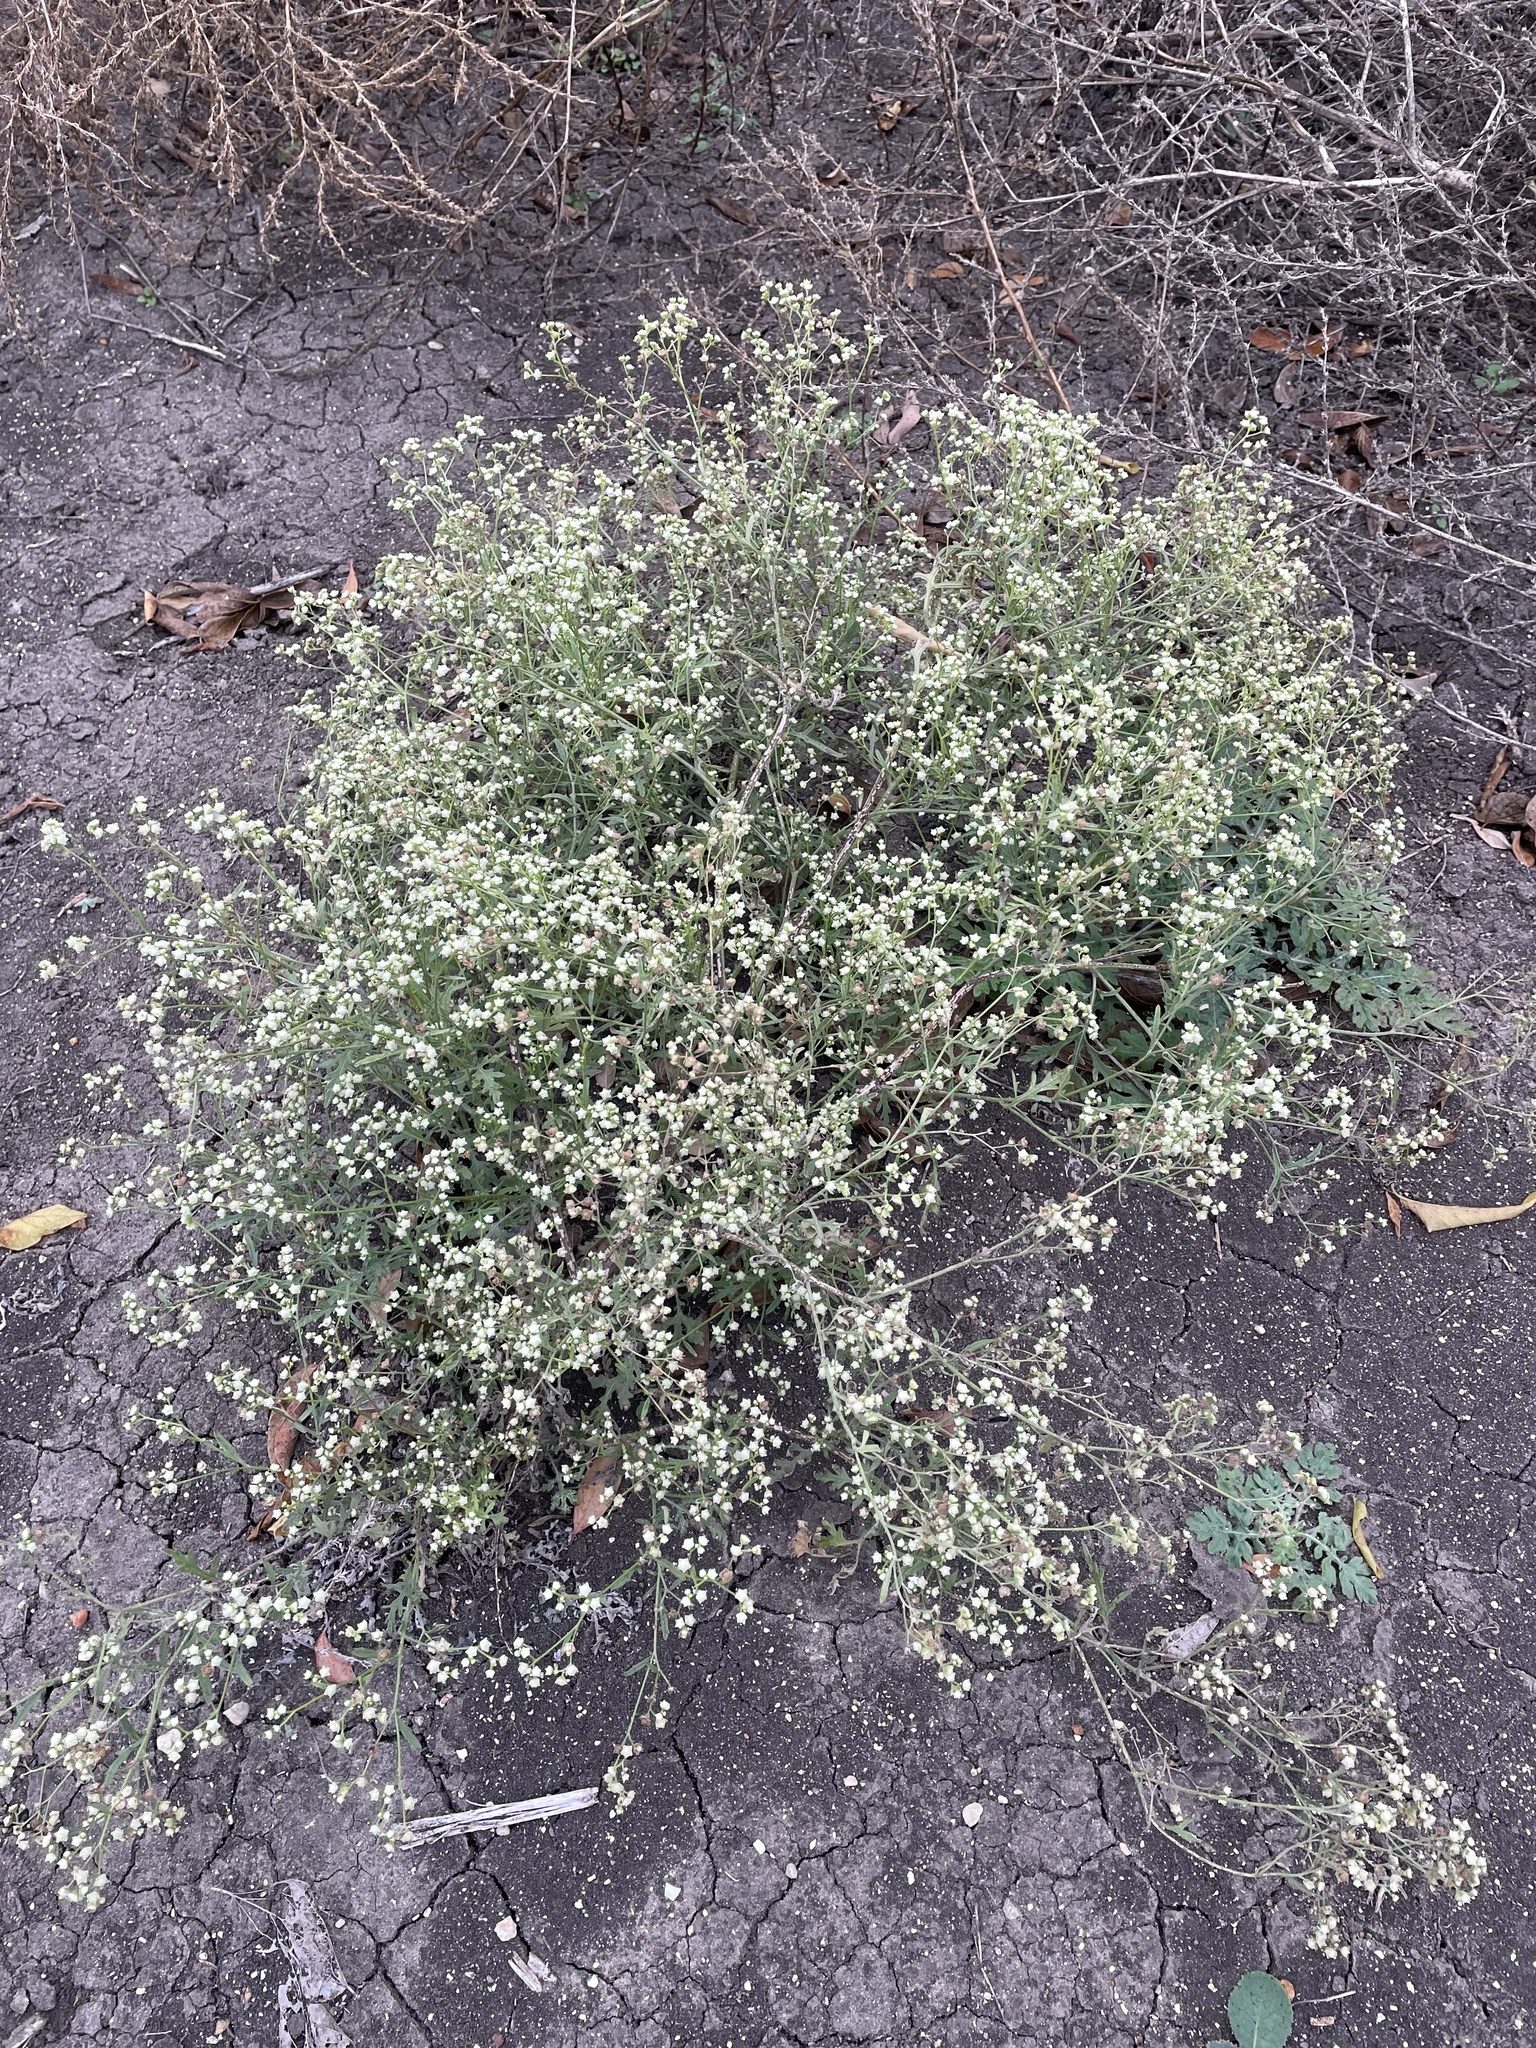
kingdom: Plantae
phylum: Tracheophyta
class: Magnoliopsida
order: Asterales
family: Asteraceae
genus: Parthenium
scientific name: Parthenium hysterophorus
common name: Santa maria feverfew
